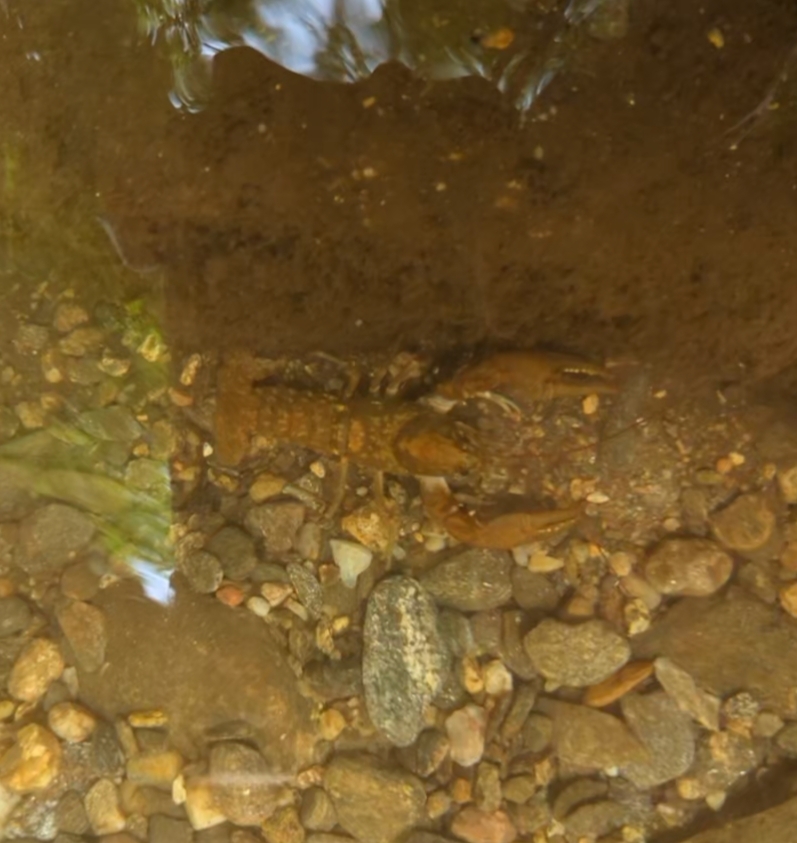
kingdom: Animalia
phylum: Arthropoda
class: Malacostraca
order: Decapoda
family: Cambaridae
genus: Cambarus
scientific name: Cambarus parrishi
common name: Hiwassee headwaters crayfish
